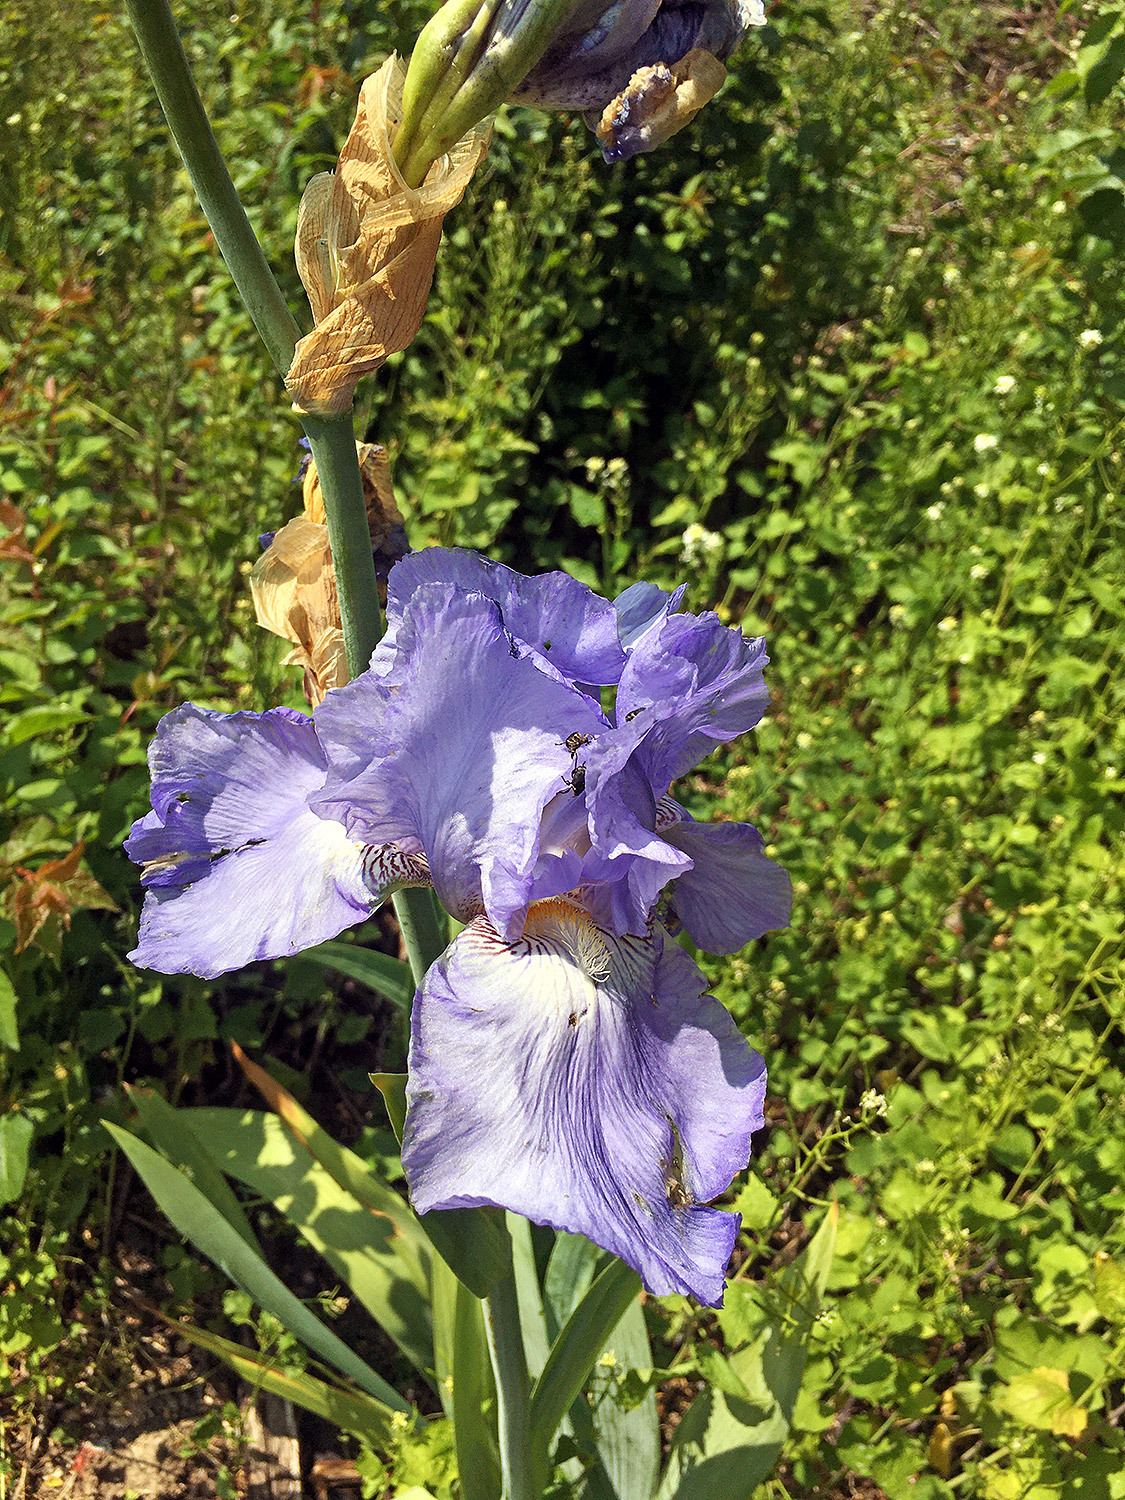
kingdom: Plantae
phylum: Tracheophyta
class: Liliopsida
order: Asparagales
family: Iridaceae
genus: Iris
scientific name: Iris germanica
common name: German iris
